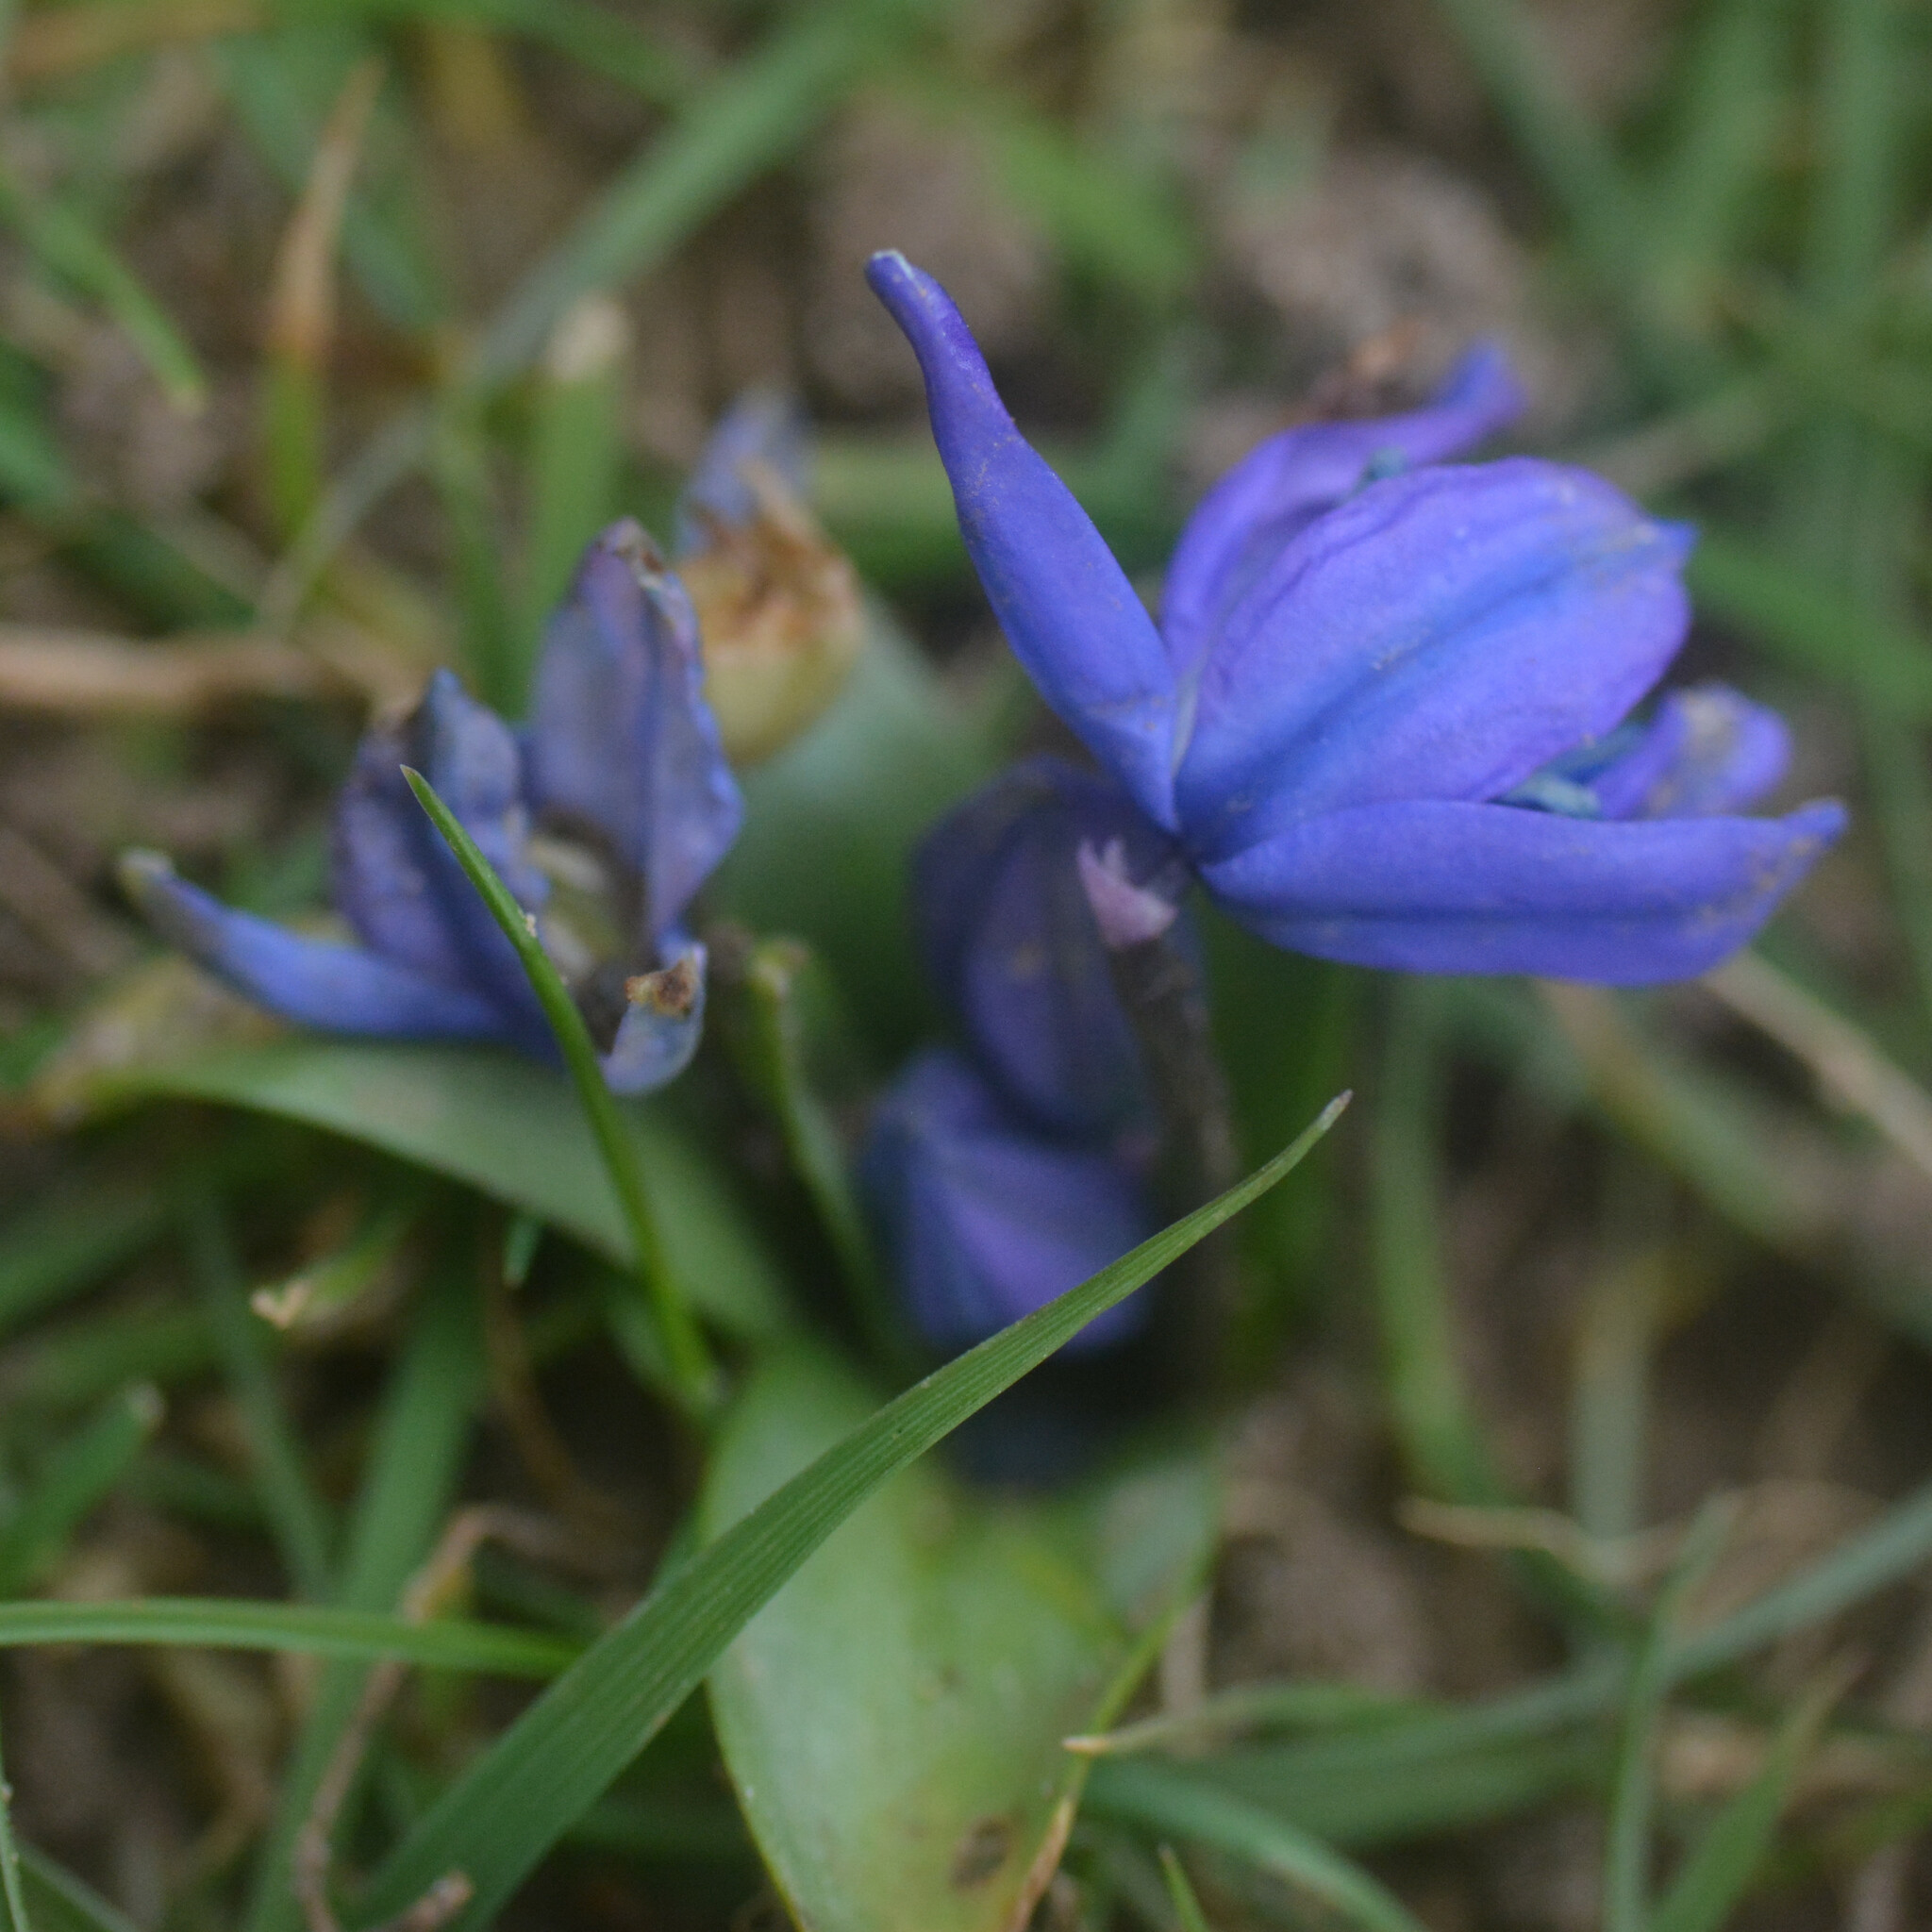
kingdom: Plantae
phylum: Tracheophyta
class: Liliopsida
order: Asparagales
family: Asparagaceae
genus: Scilla
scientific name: Scilla siberica
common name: Siberian squill
